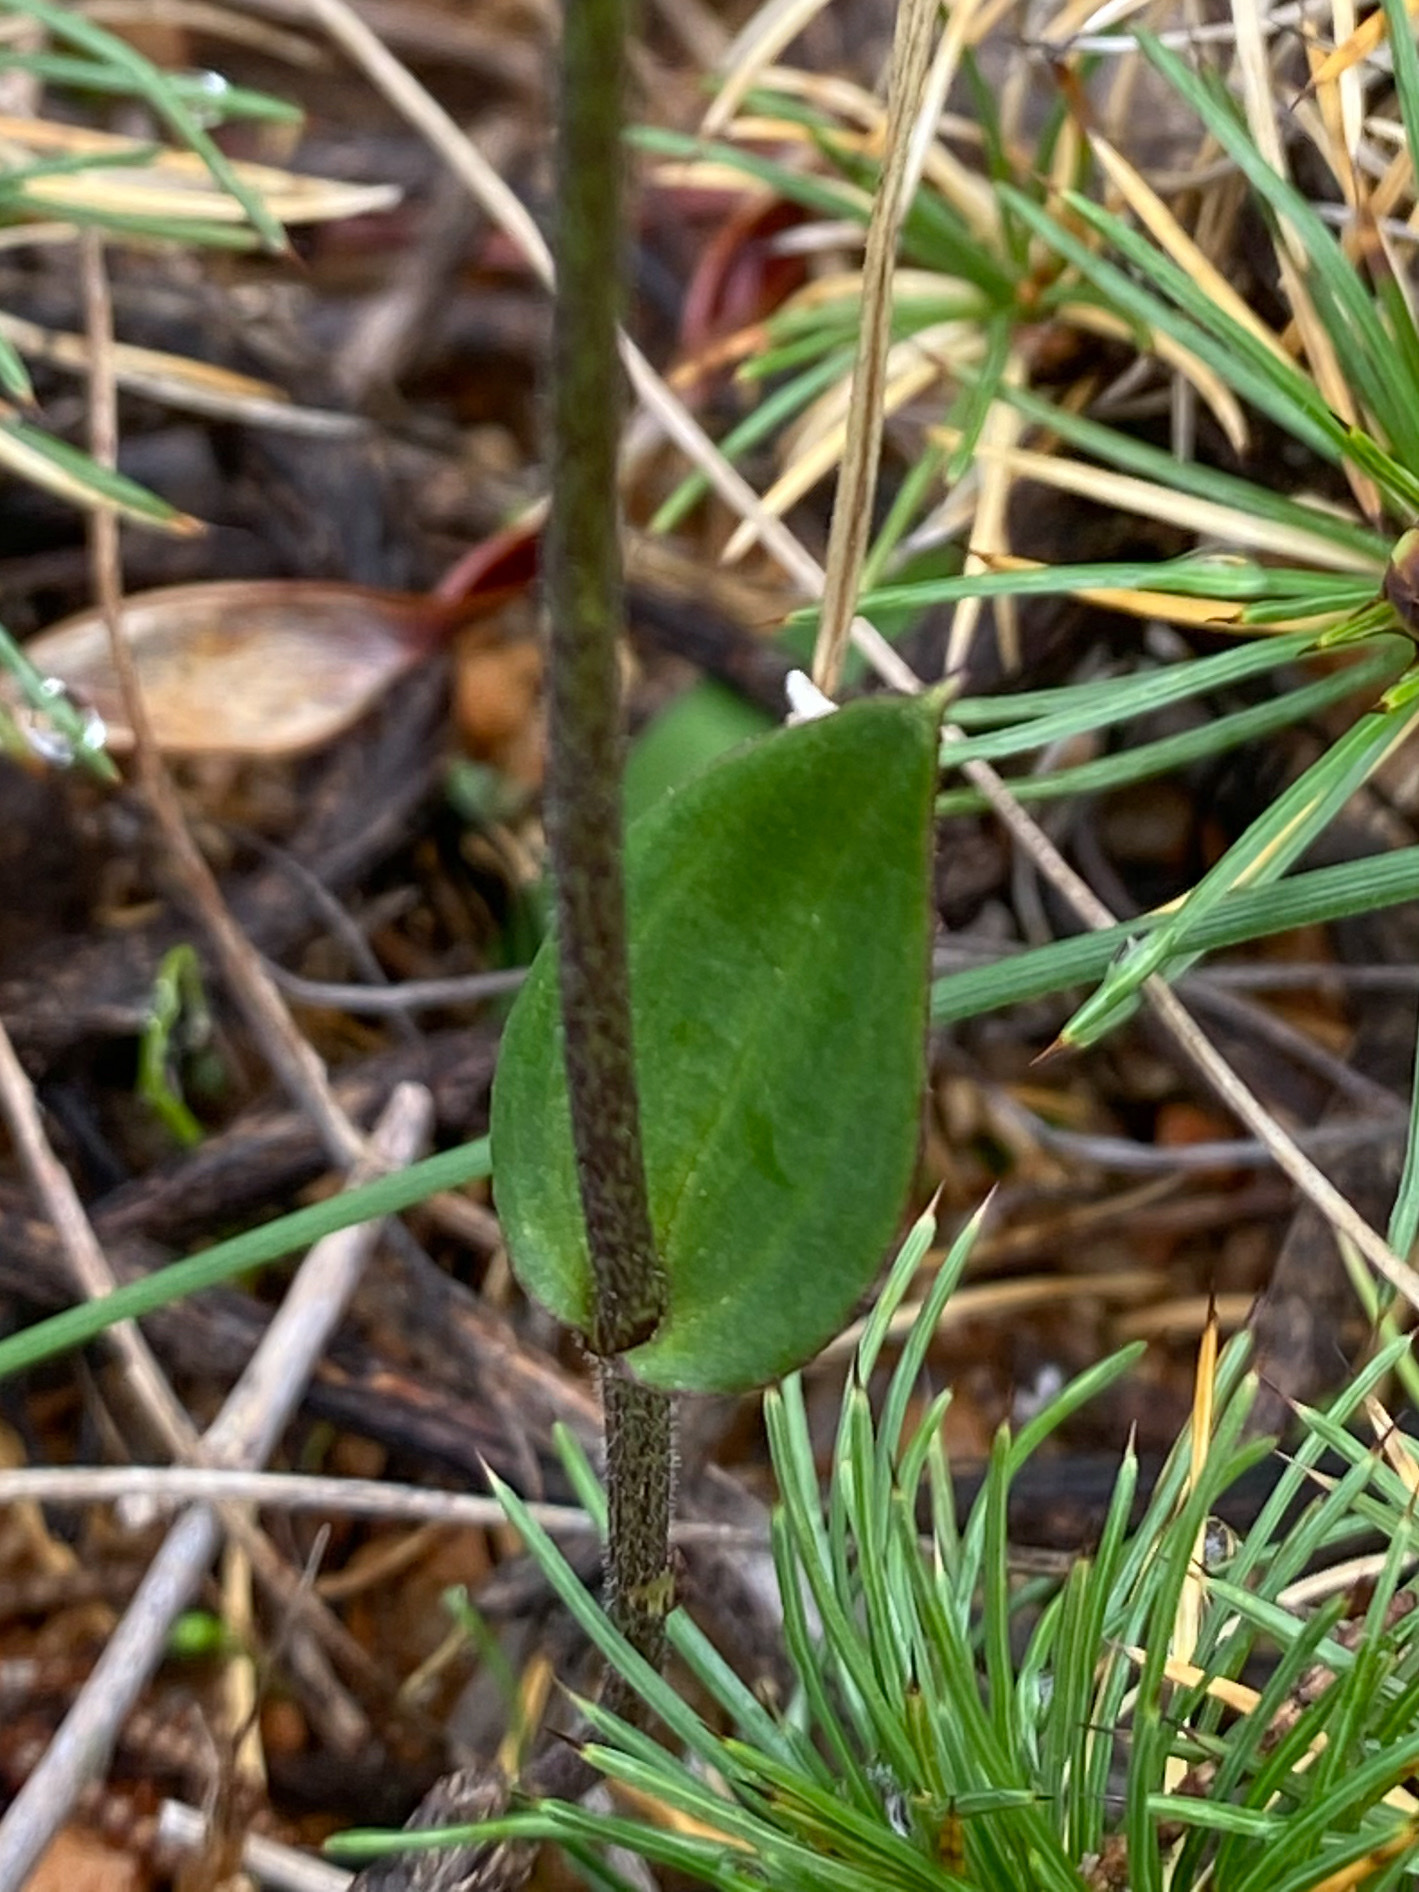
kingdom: Plantae
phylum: Tracheophyta
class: Liliopsida
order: Asparagales
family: Orchidaceae
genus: Eriochilus
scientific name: Eriochilus dilatatus
